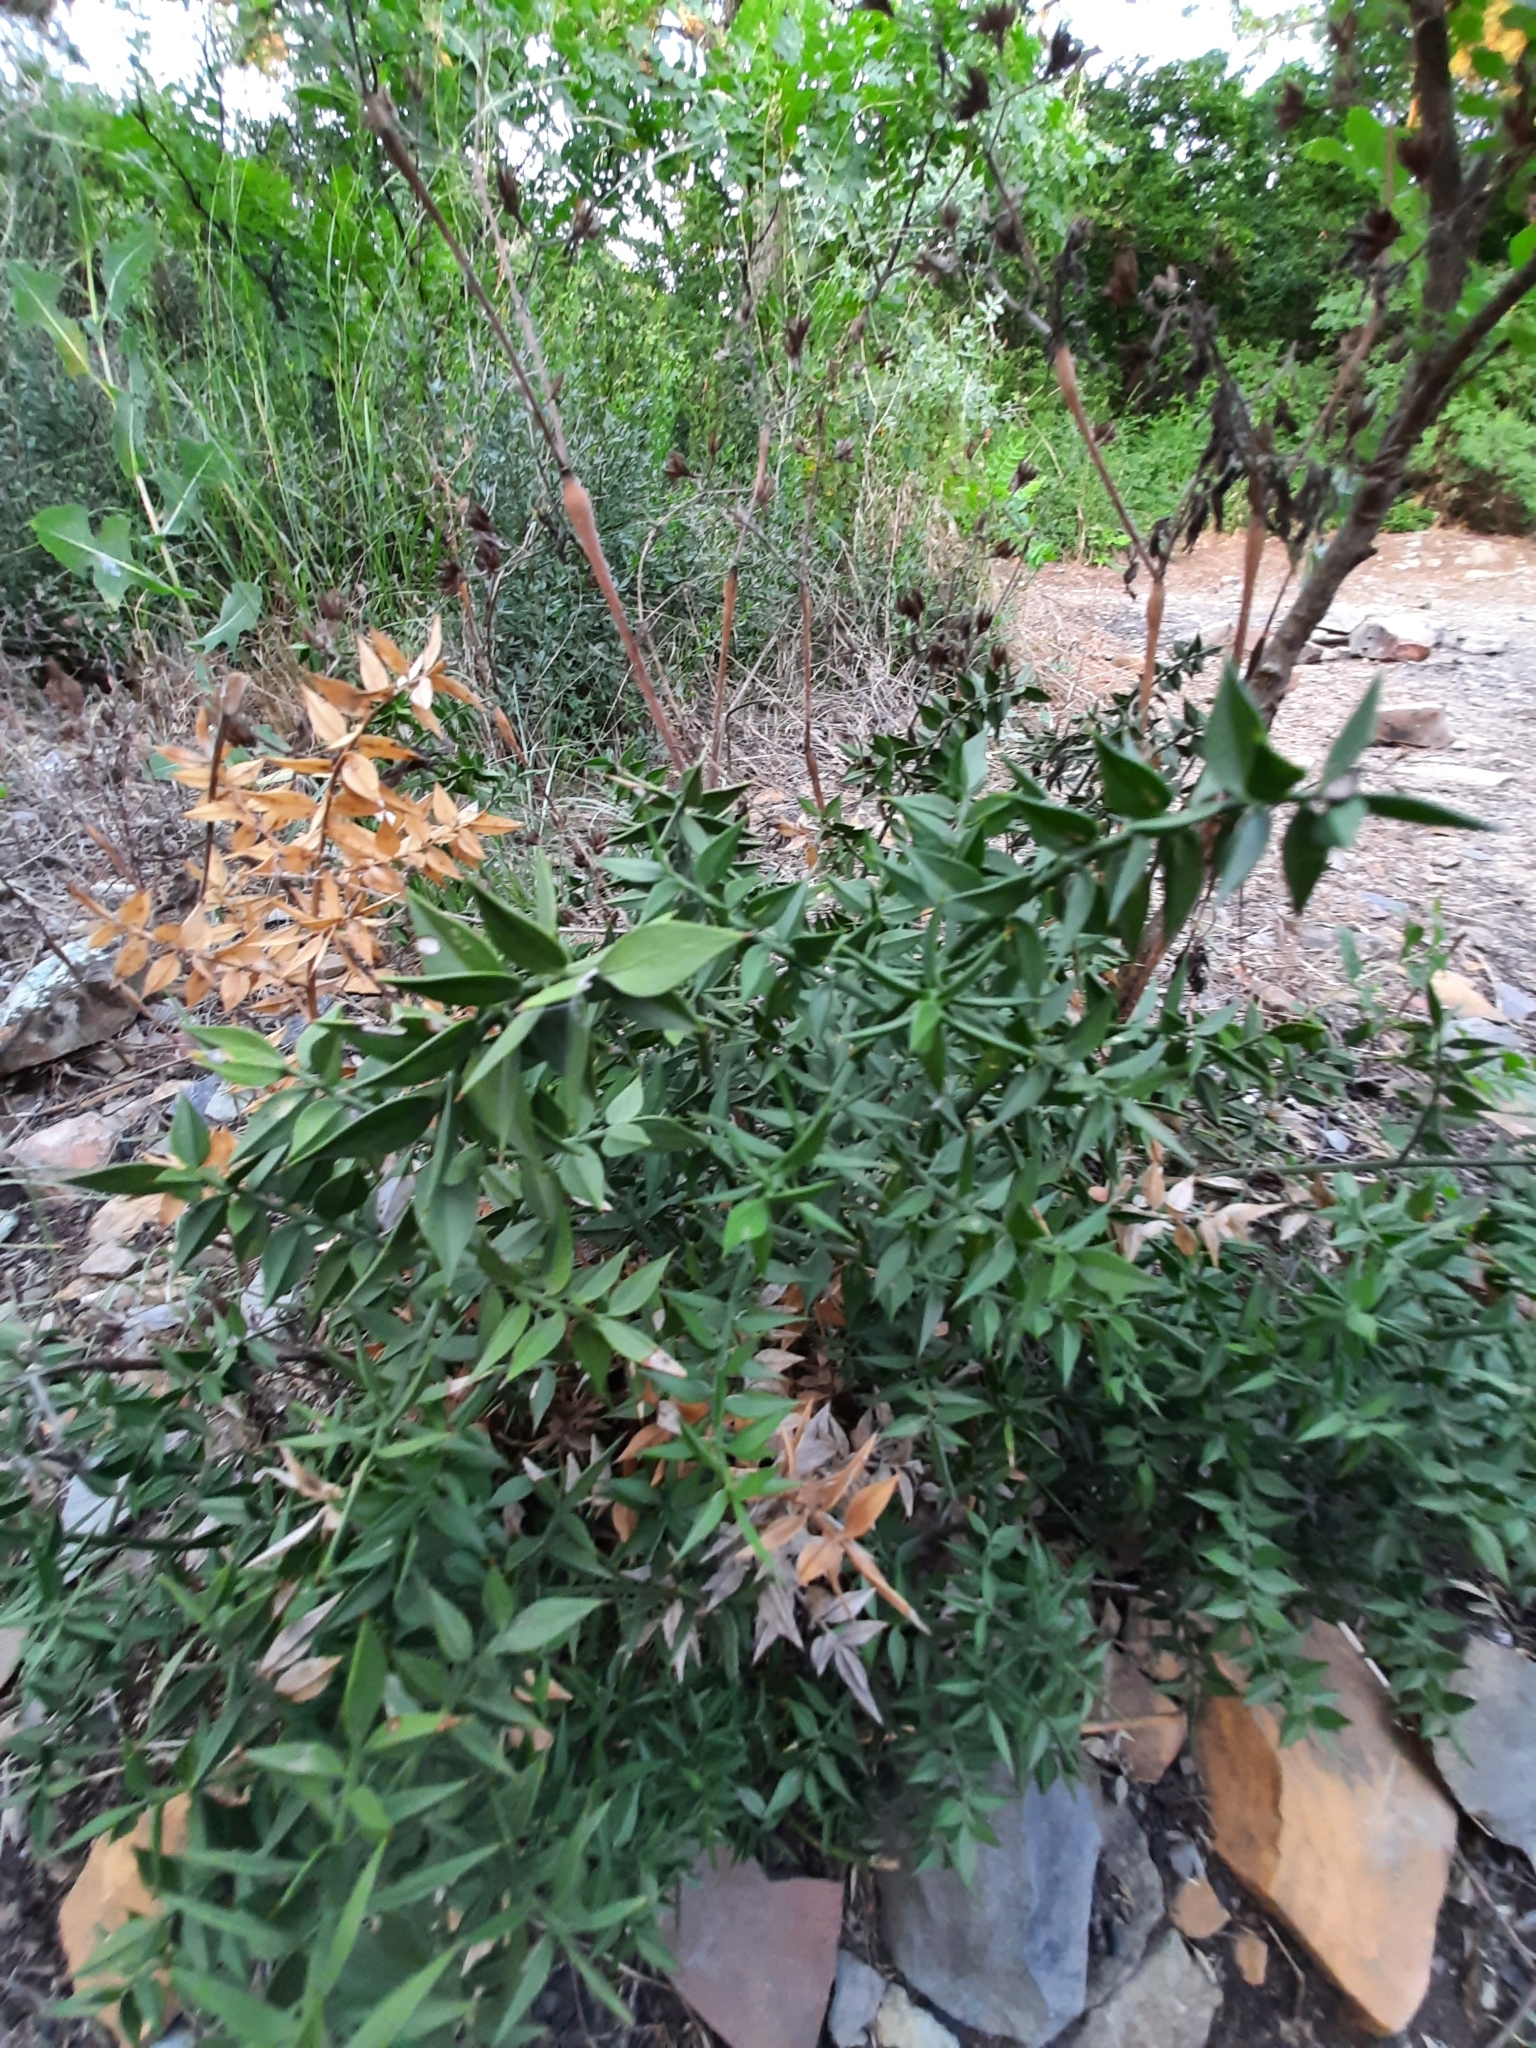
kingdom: Plantae
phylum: Tracheophyta
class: Liliopsida
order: Asparagales
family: Asparagaceae
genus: Ruscus
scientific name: Ruscus aculeatus
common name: Butcher's-broom
